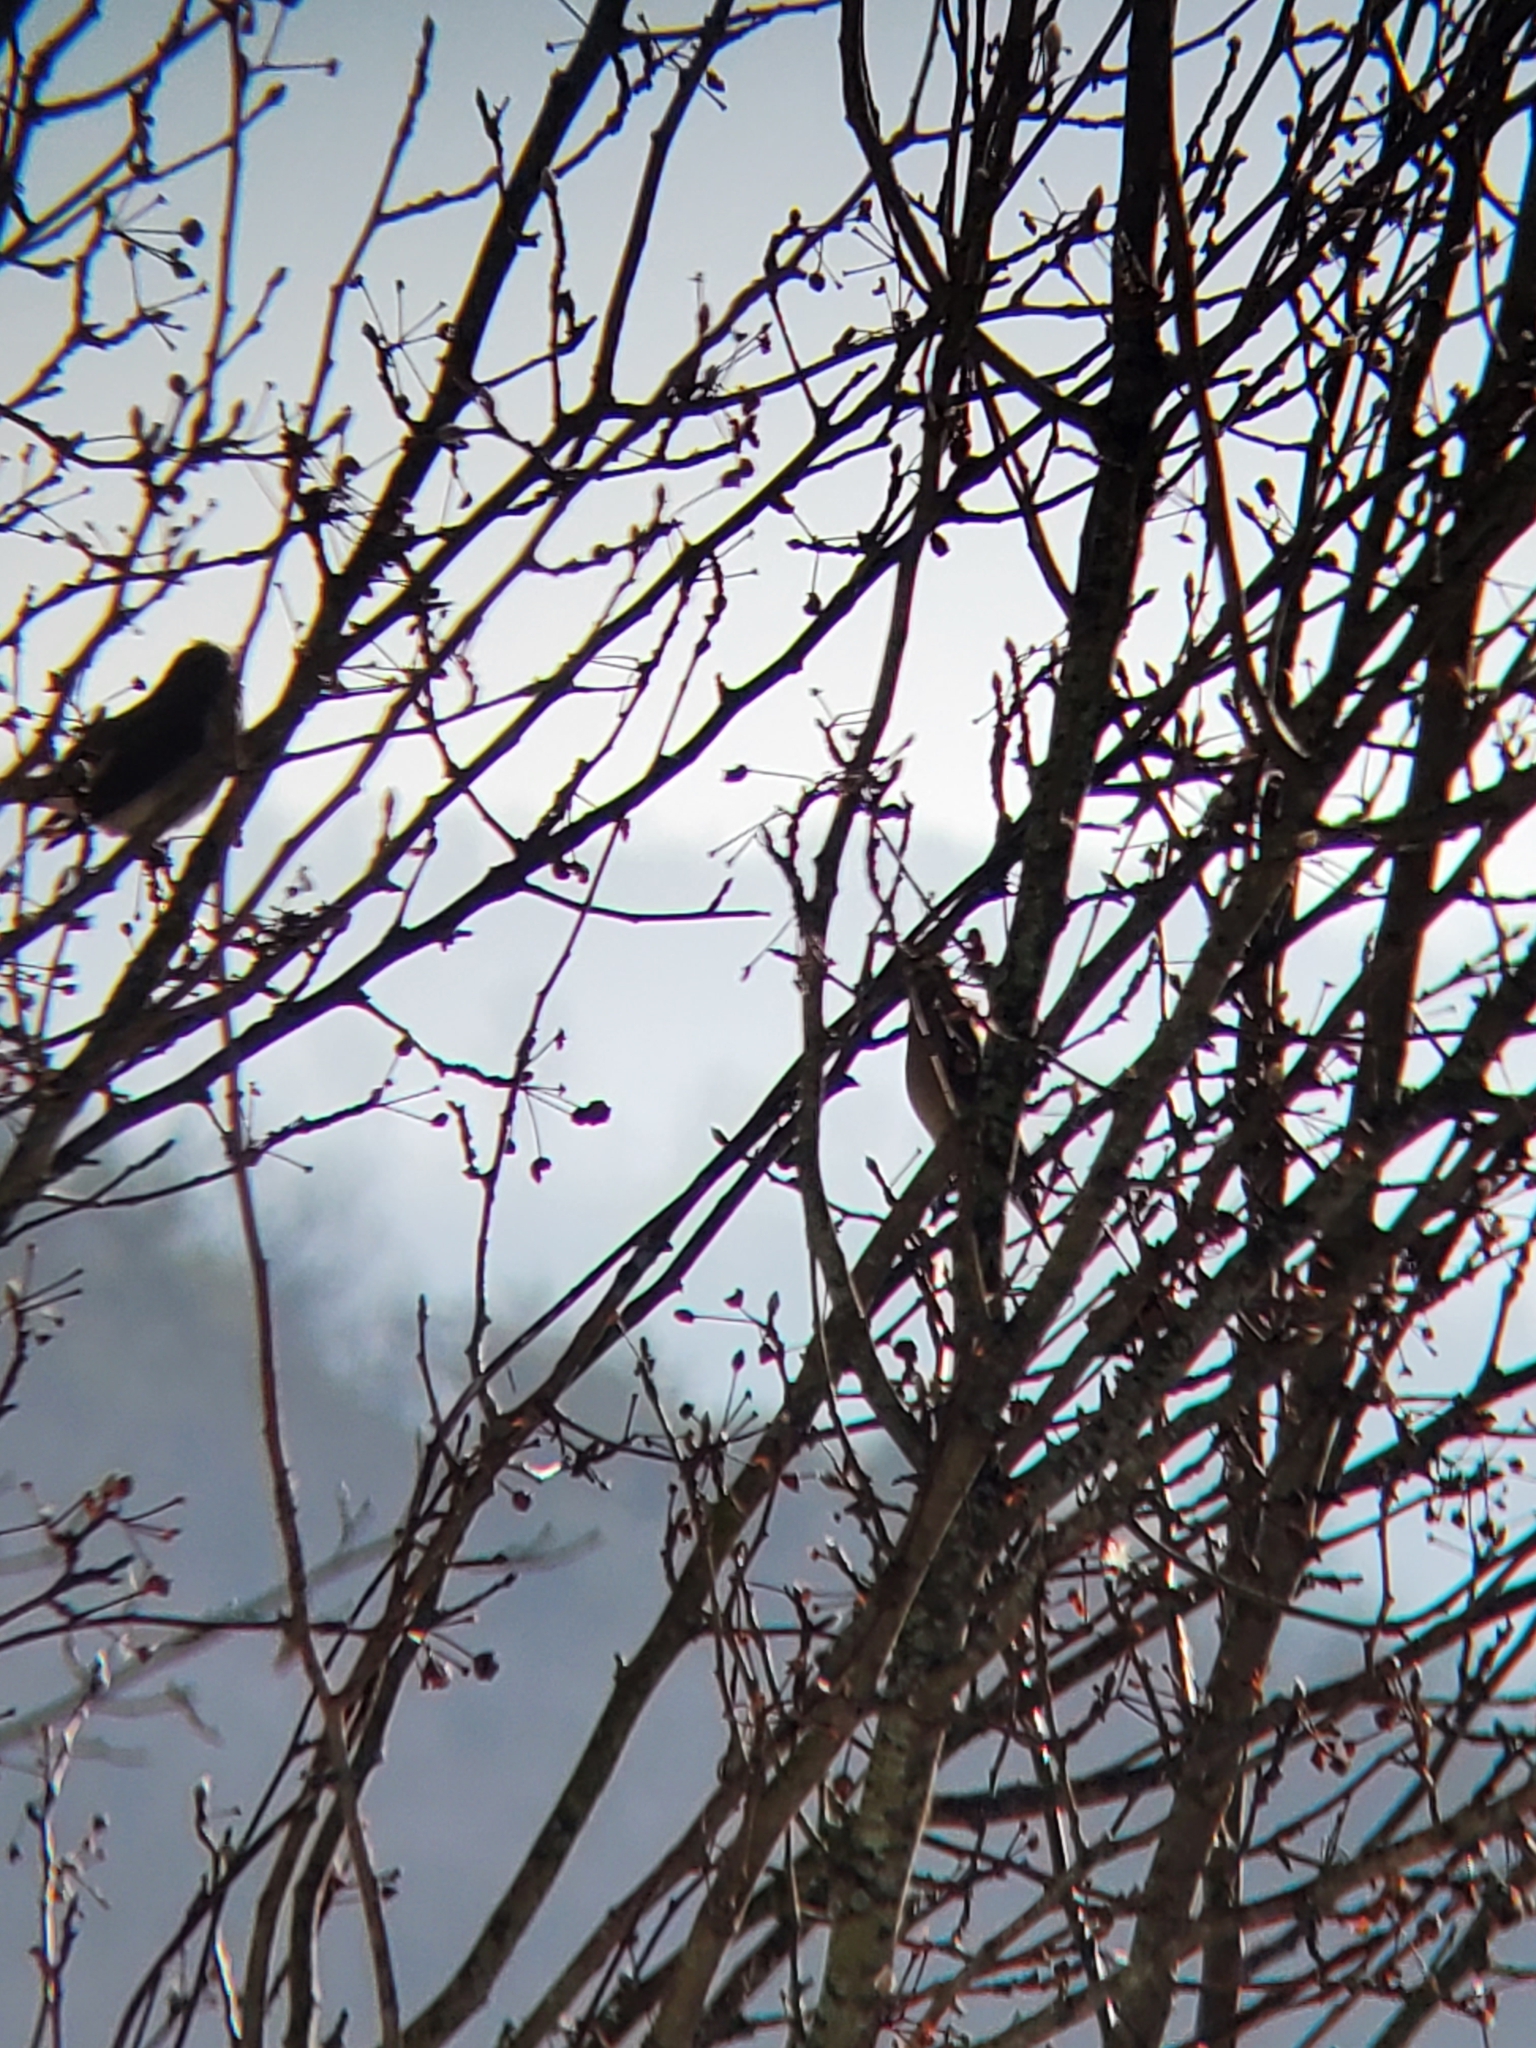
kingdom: Animalia
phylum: Chordata
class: Aves
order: Passeriformes
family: Bombycillidae
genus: Bombycilla
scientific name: Bombycilla cedrorum
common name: Cedar waxwing
